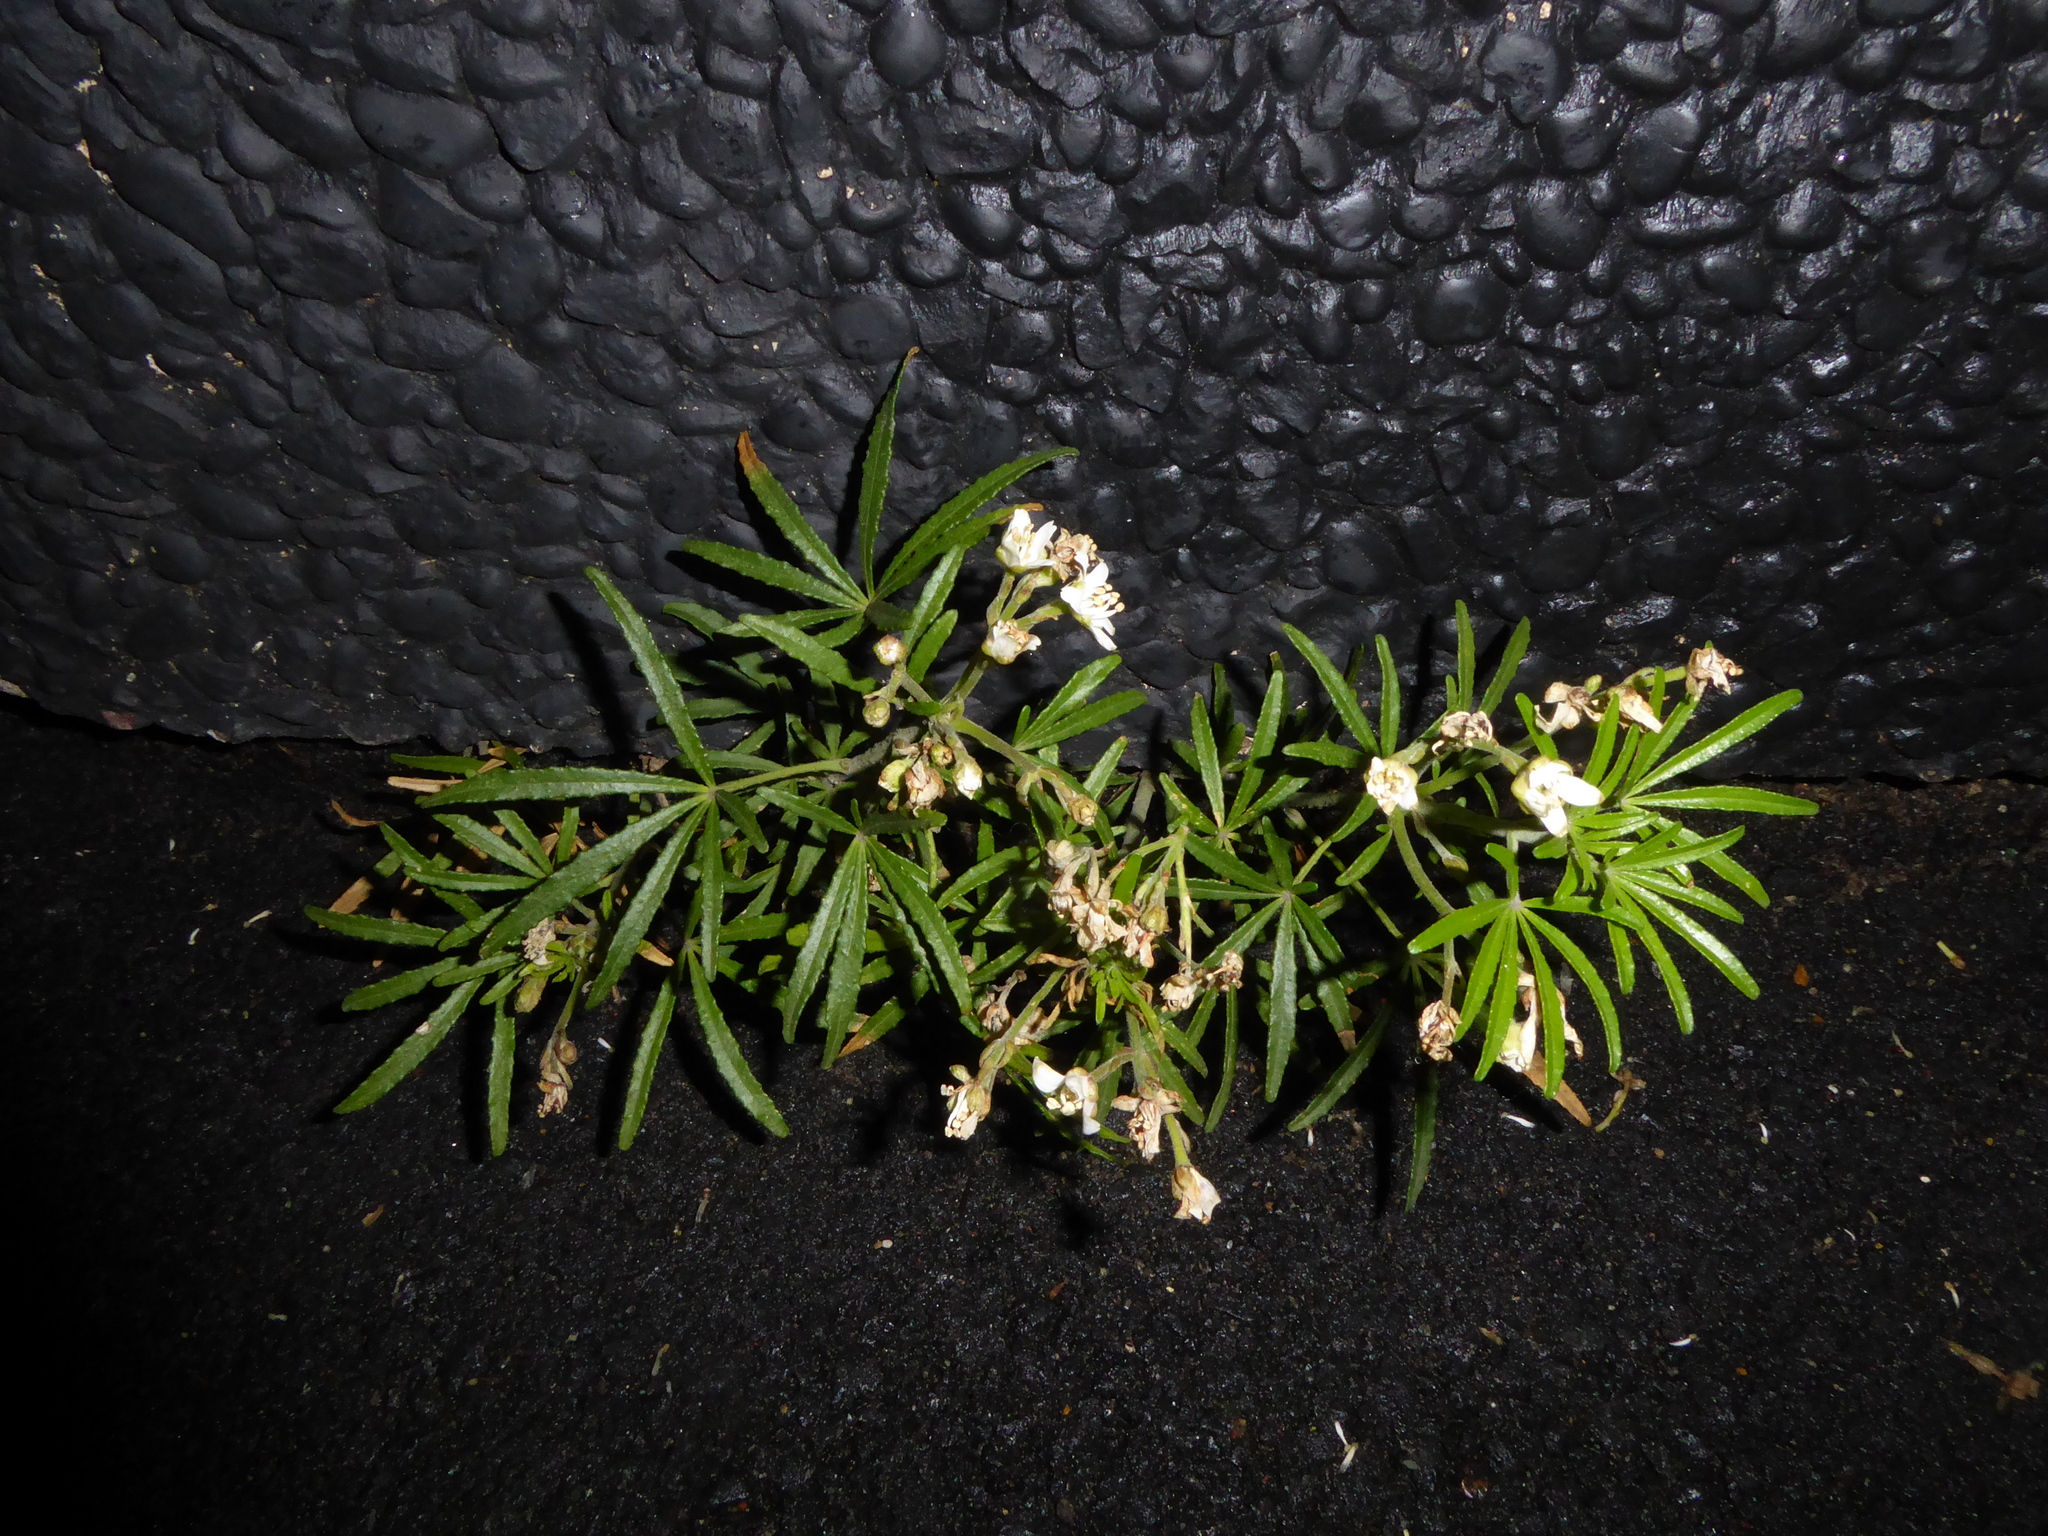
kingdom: Plantae
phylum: Tracheophyta
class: Magnoliopsida
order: Sapindales
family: Rutaceae
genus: Choisya
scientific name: Choisya dewitteana
